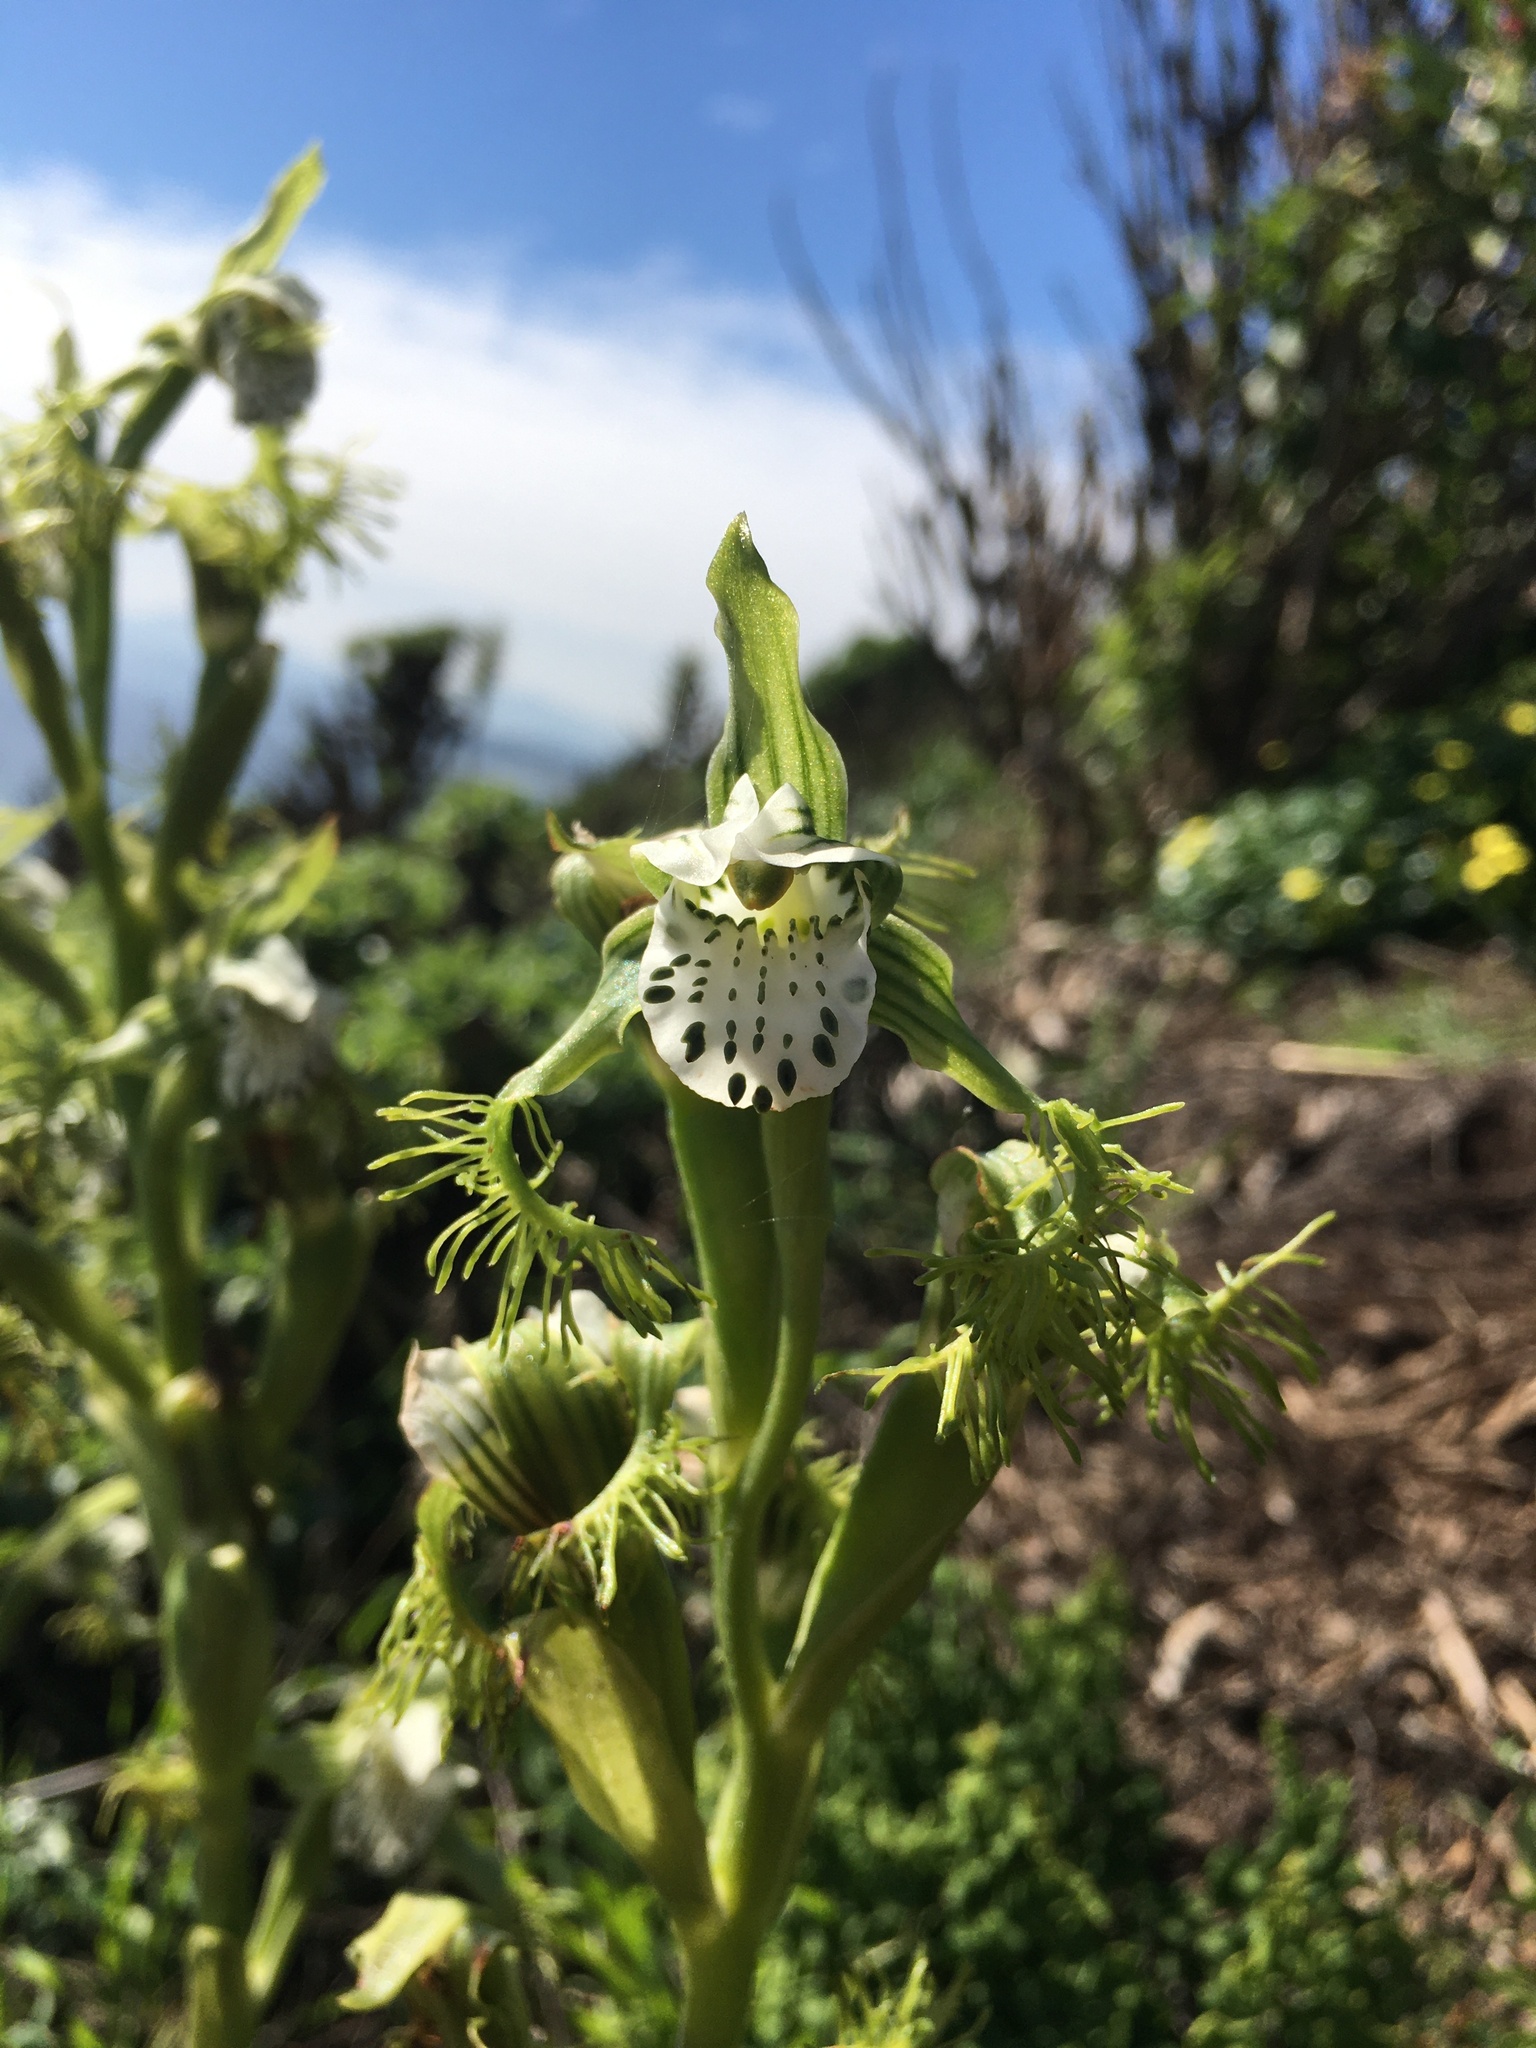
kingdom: Plantae
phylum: Tracheophyta
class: Liliopsida
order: Asparagales
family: Orchidaceae
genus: Bipinnula
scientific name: Bipinnula fimbriata
